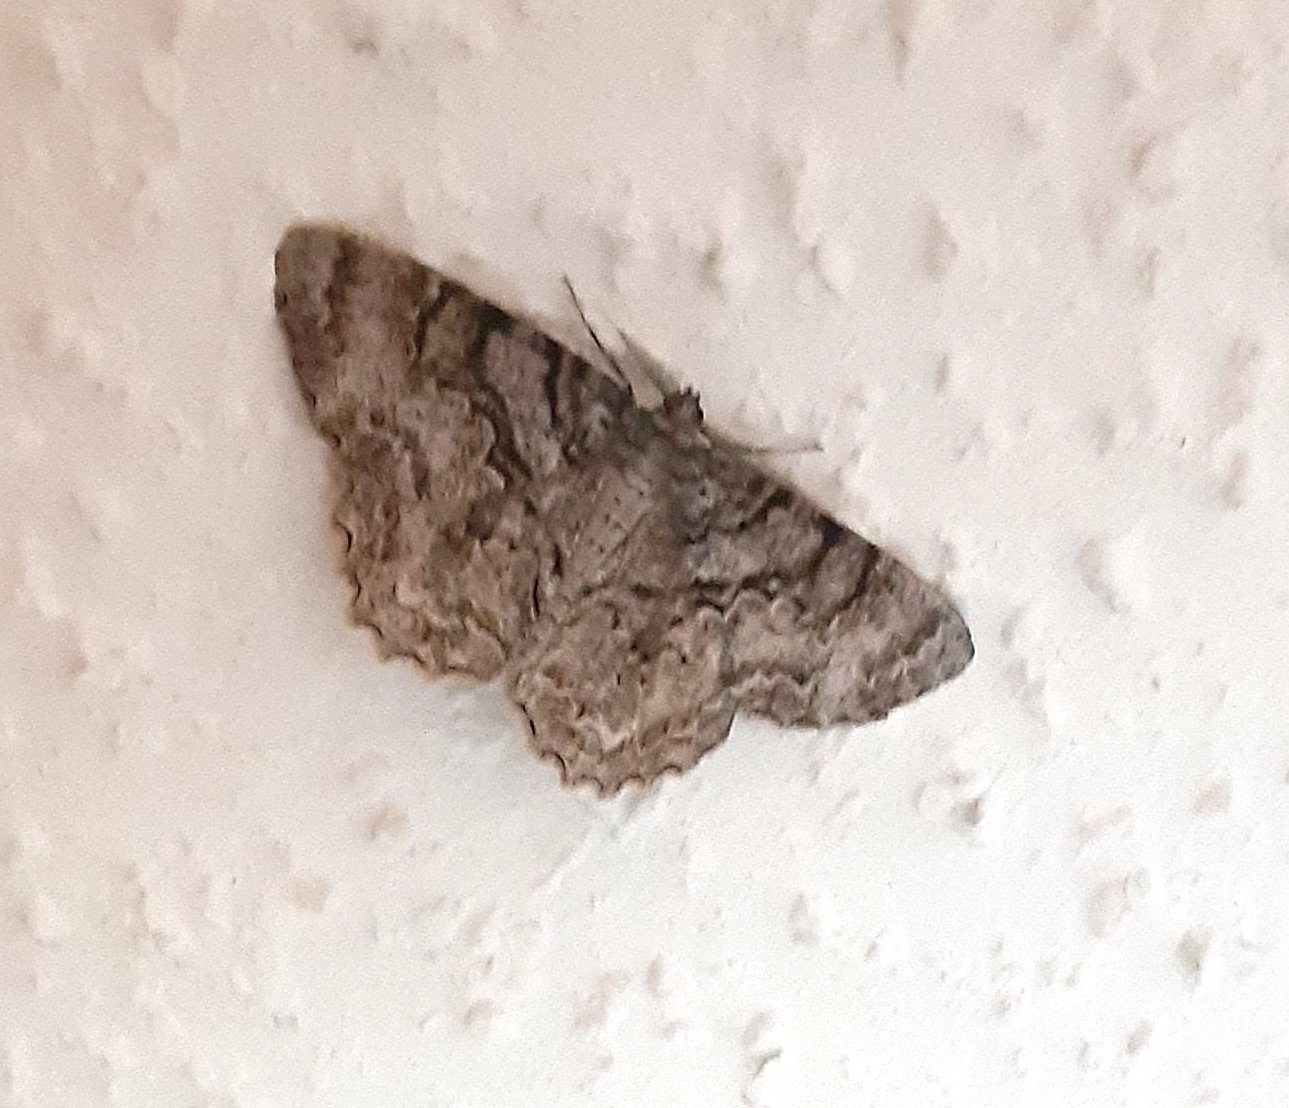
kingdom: Animalia
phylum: Arthropoda
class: Insecta
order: Lepidoptera
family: Geometridae
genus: Epimecis
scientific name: Epimecis hortaria
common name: Tulip-tree beauty
